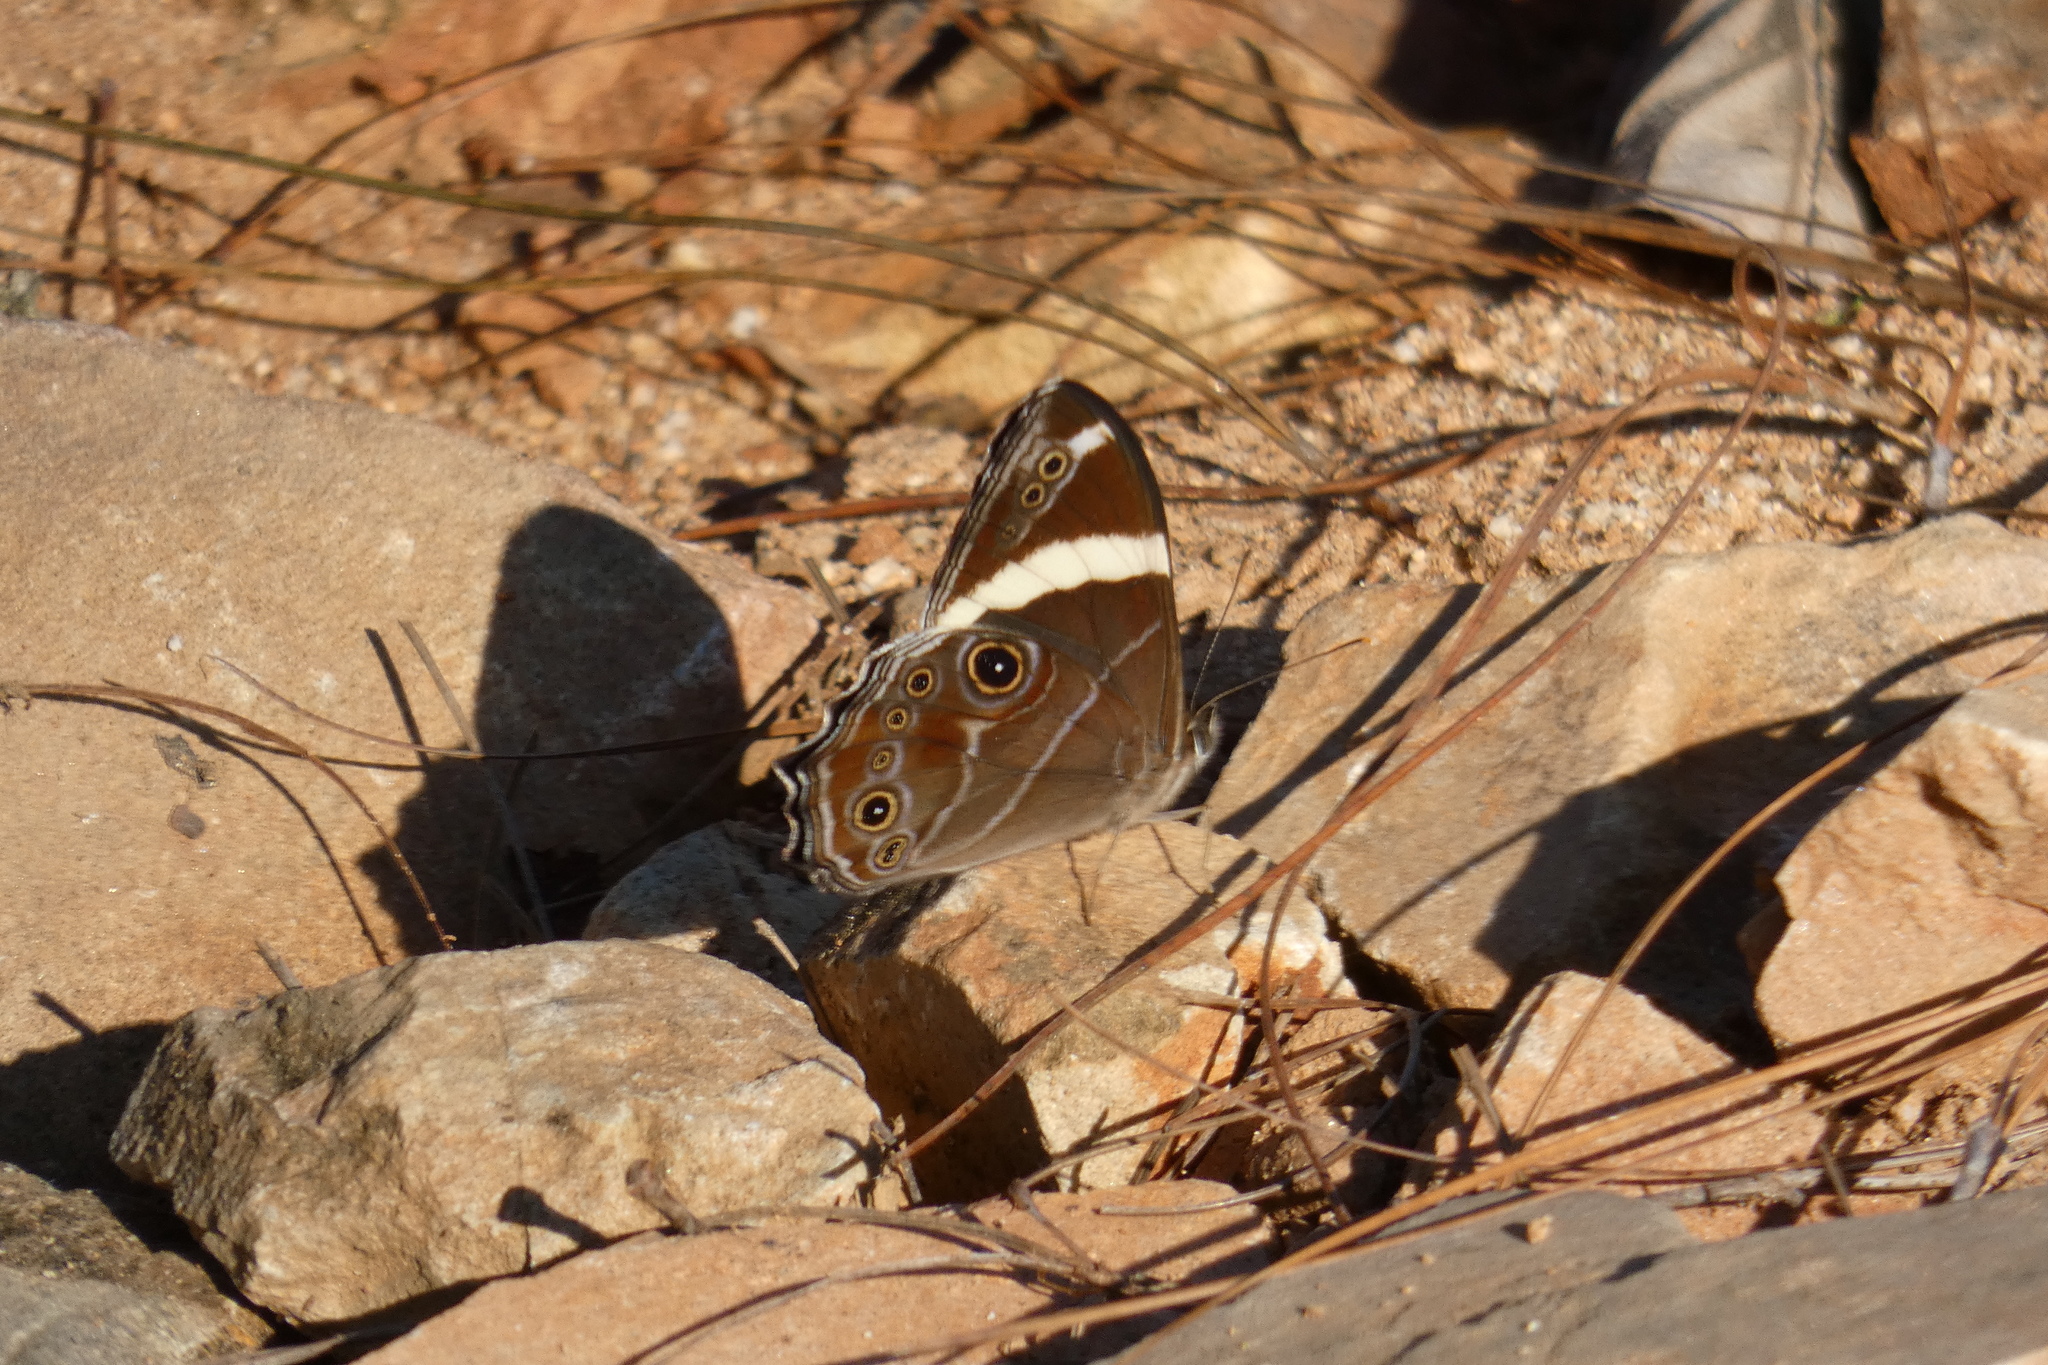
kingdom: Animalia
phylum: Arthropoda
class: Insecta
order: Lepidoptera
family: Nymphalidae
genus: Lethe
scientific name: Lethe confusa
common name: Banded treebrown
